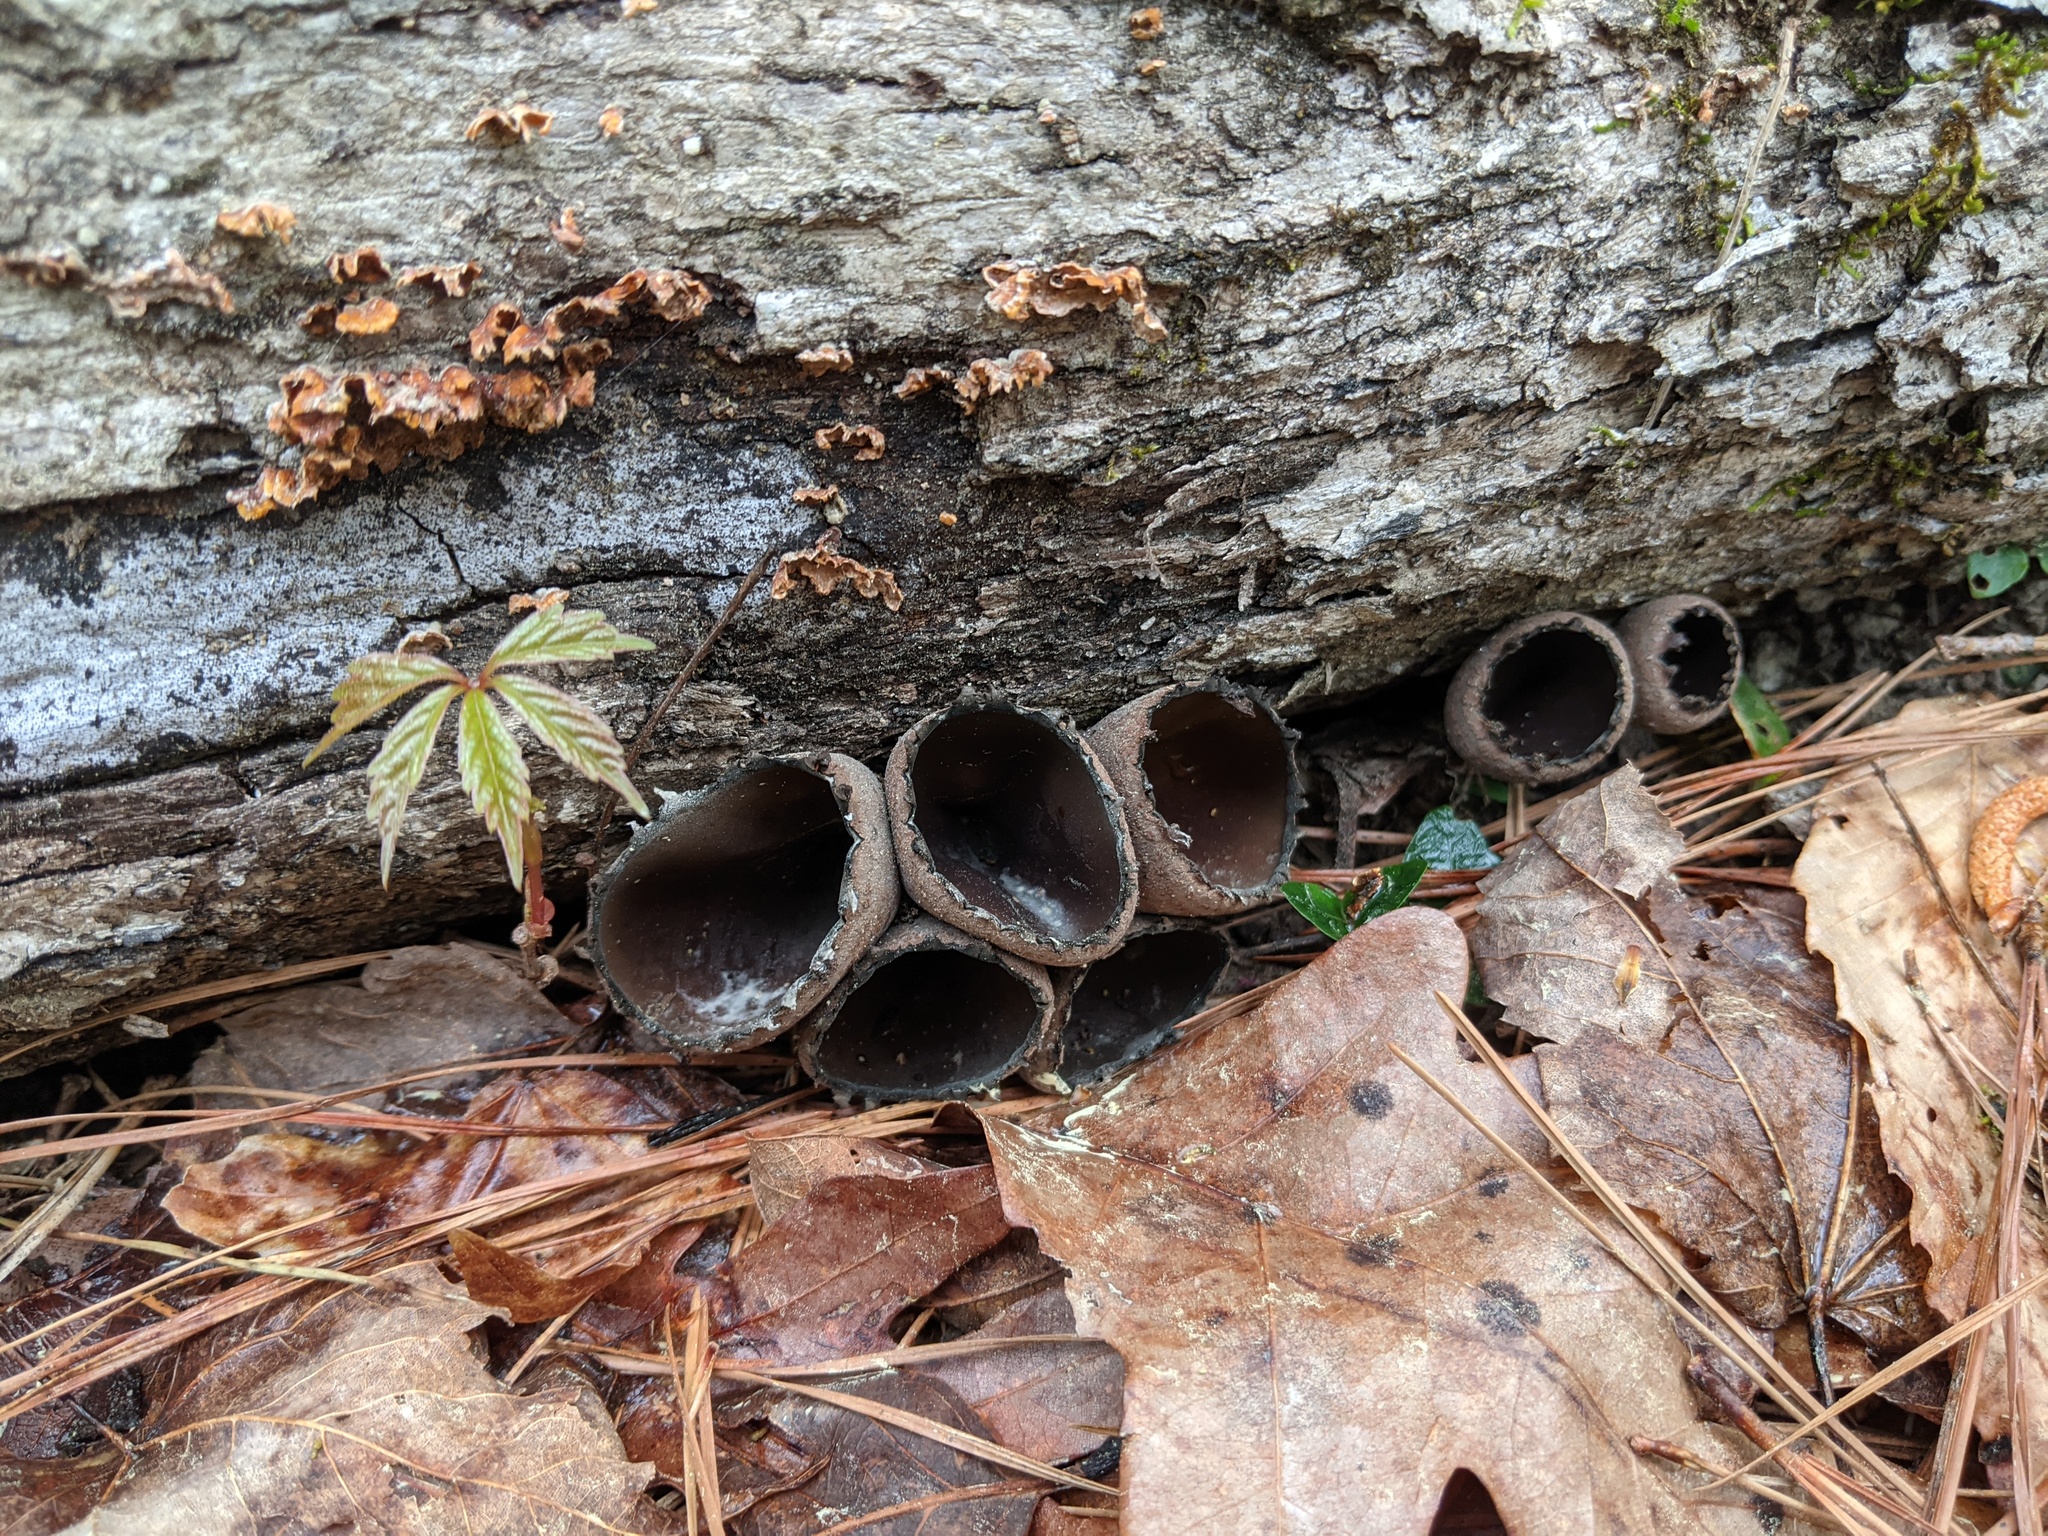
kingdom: Fungi
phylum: Ascomycota
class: Pezizomycetes
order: Pezizales
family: Sarcosomataceae
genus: Urnula
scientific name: Urnula craterium
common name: Devil's urn
